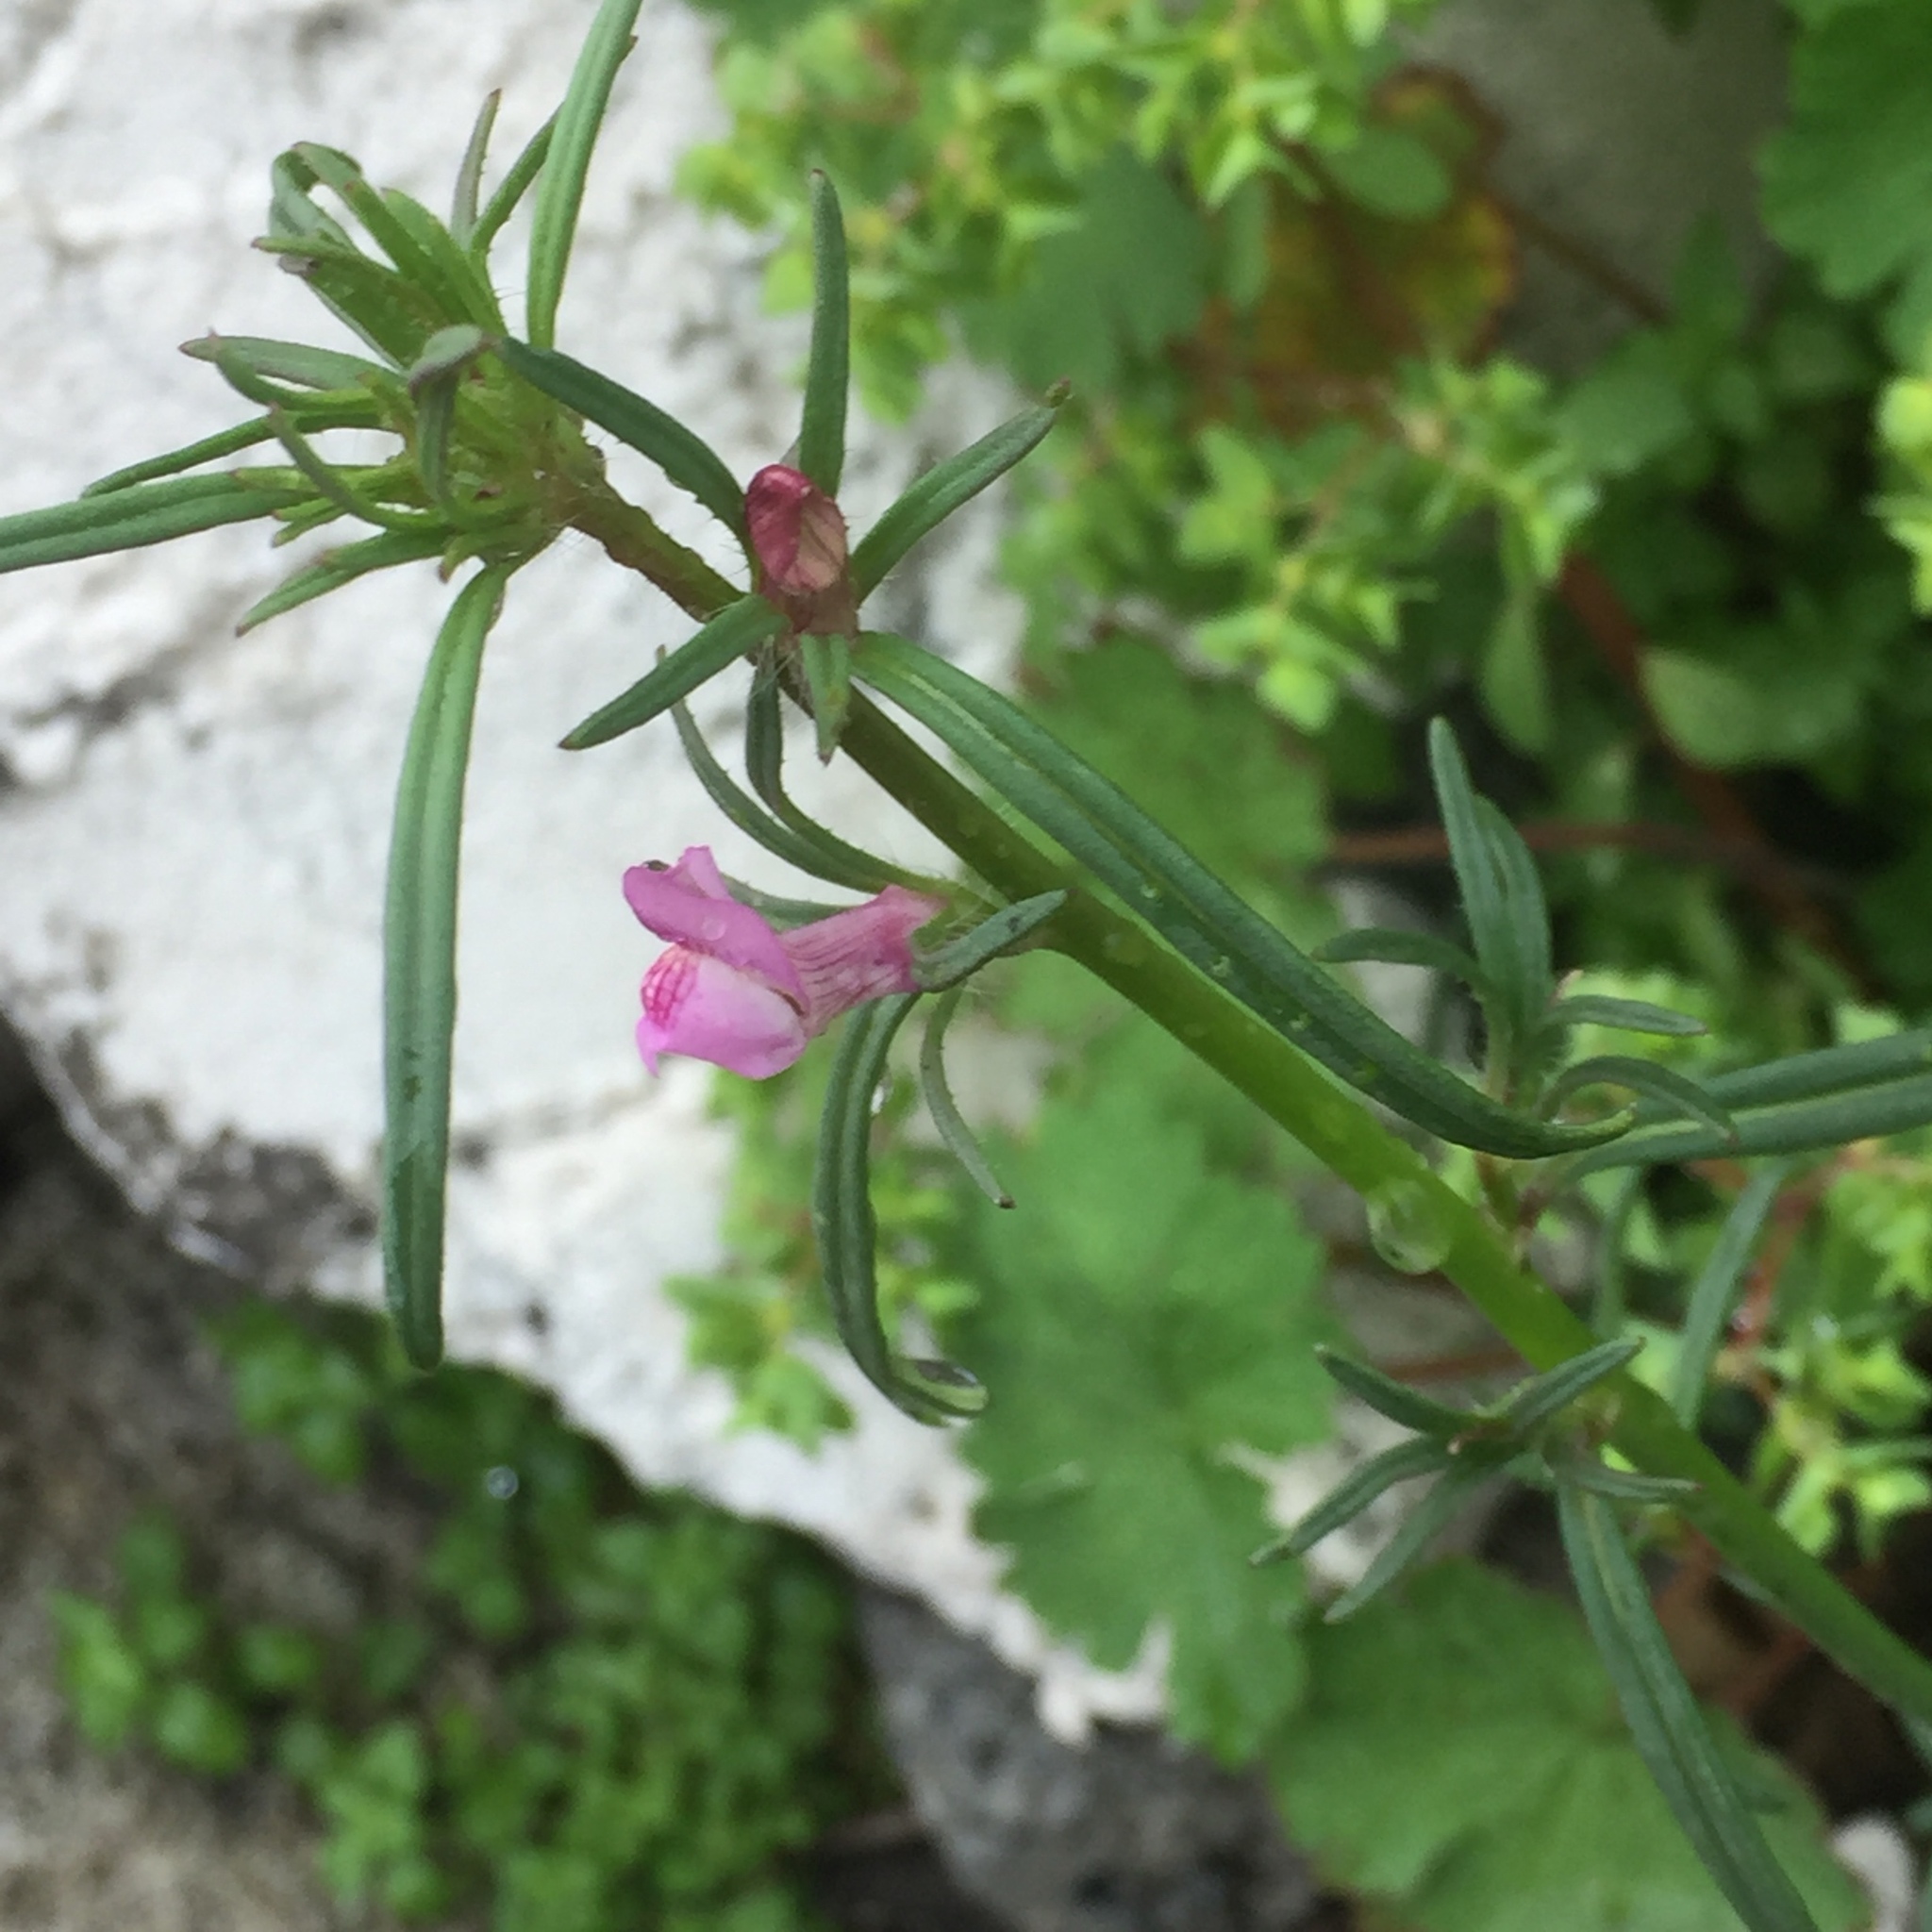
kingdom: Plantae
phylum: Tracheophyta
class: Magnoliopsida
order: Lamiales
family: Plantaginaceae
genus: Misopates
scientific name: Misopates orontium
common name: Weasel's-snout
